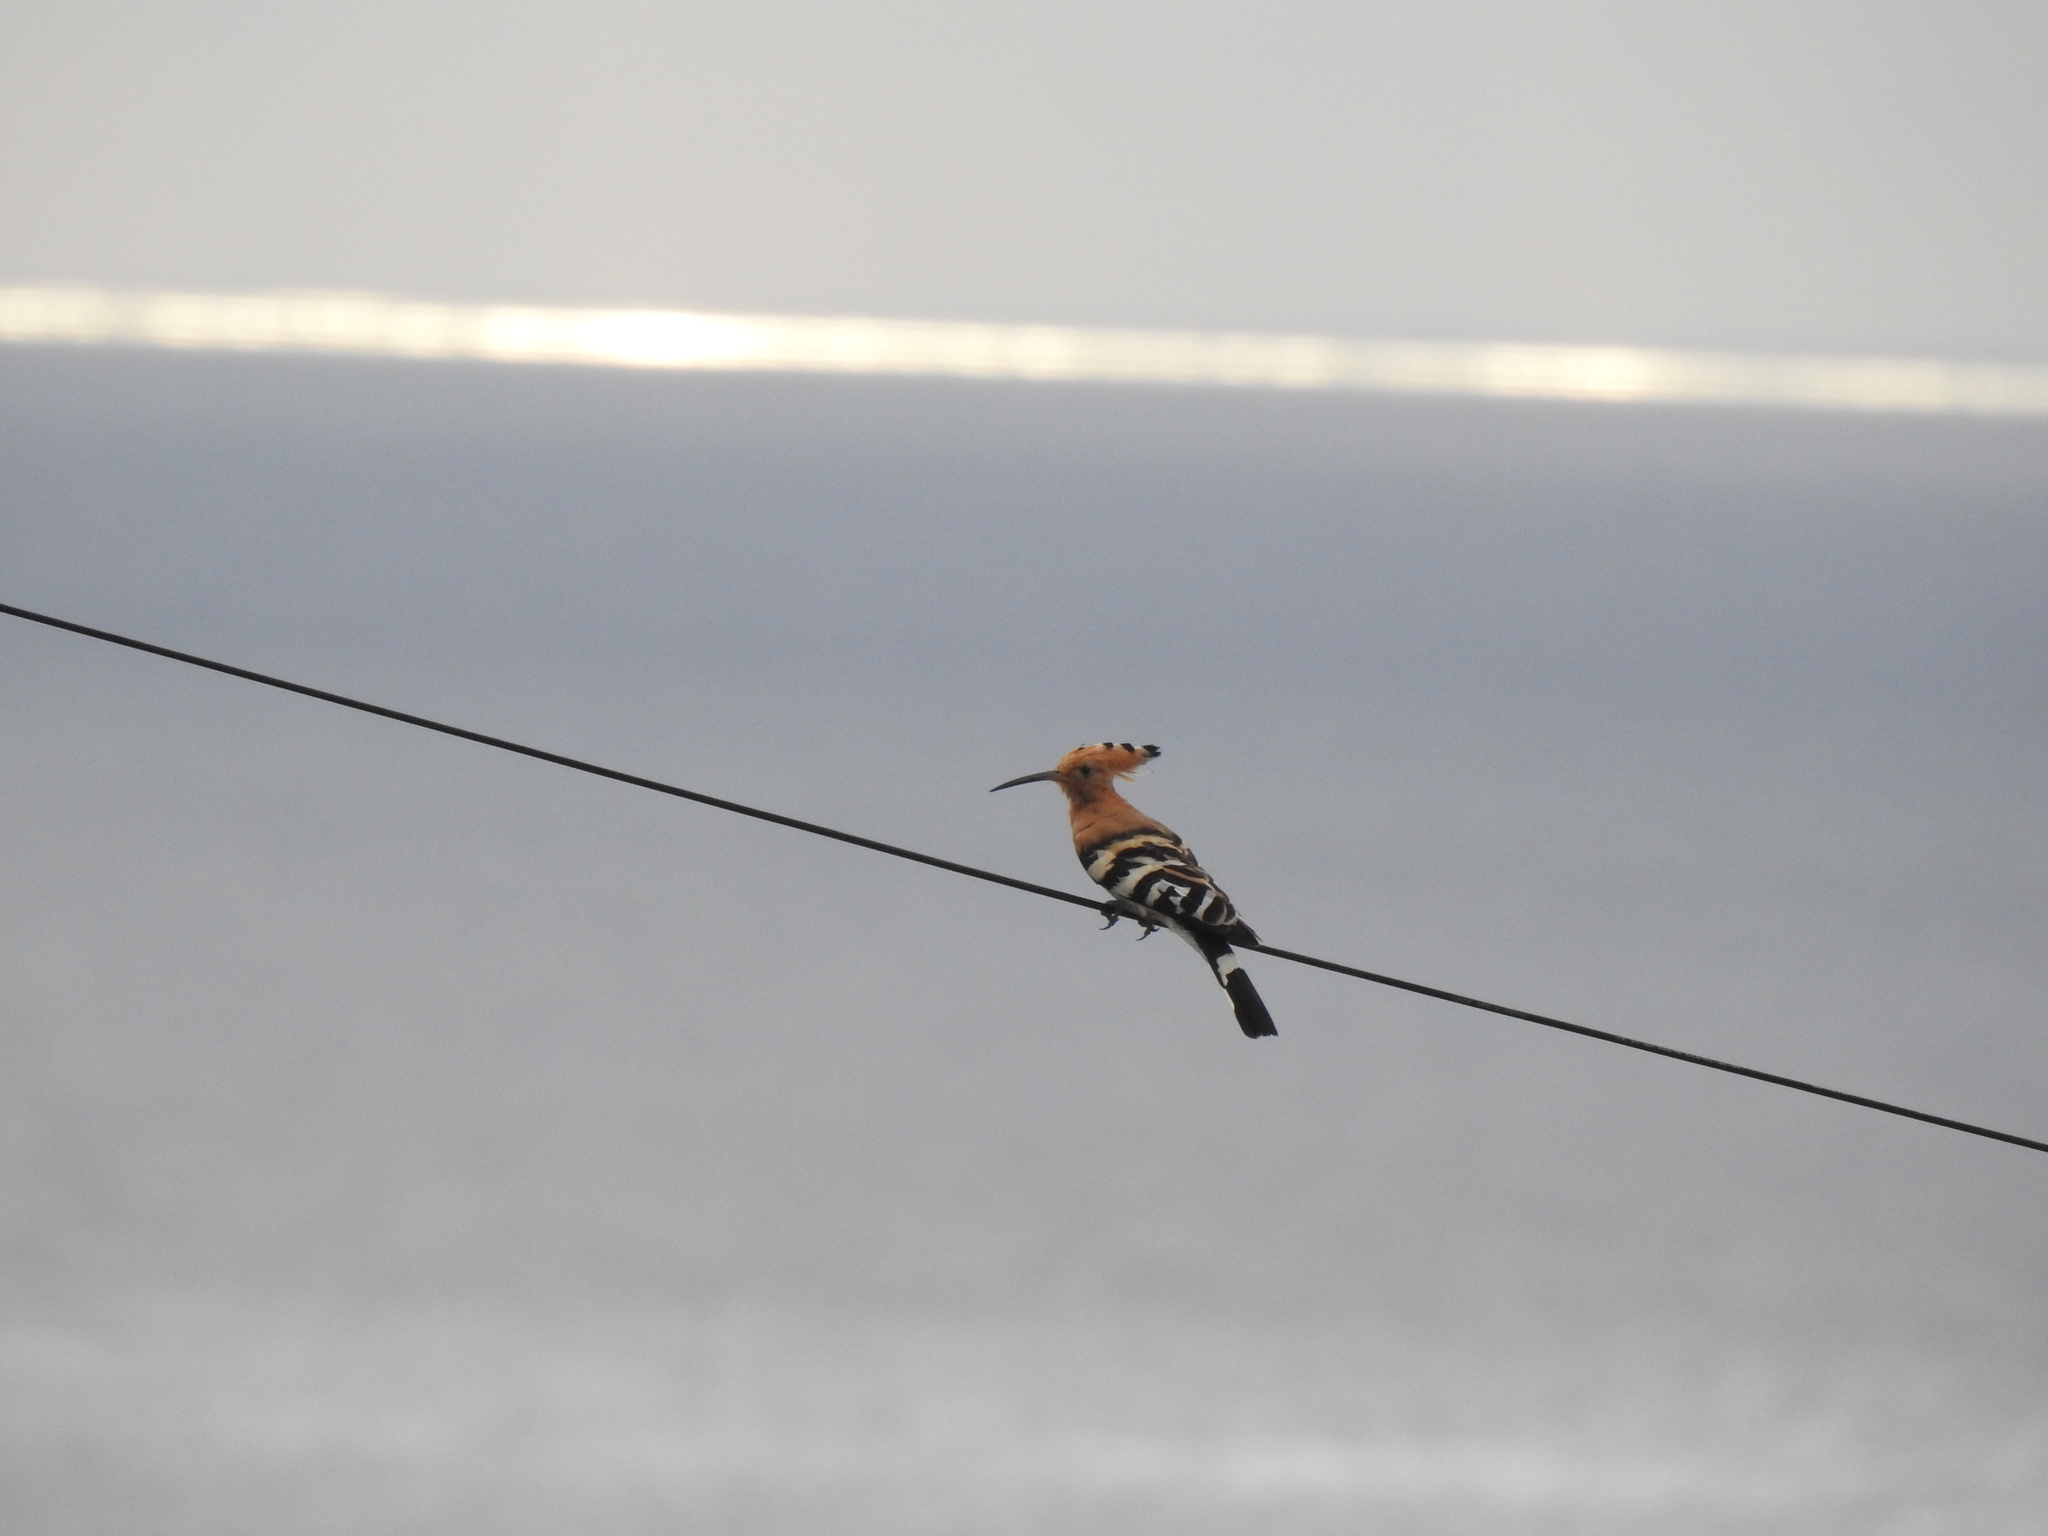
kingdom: Animalia
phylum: Chordata
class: Aves
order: Bucerotiformes
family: Upupidae
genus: Upupa
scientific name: Upupa epops
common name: Eurasian hoopoe
